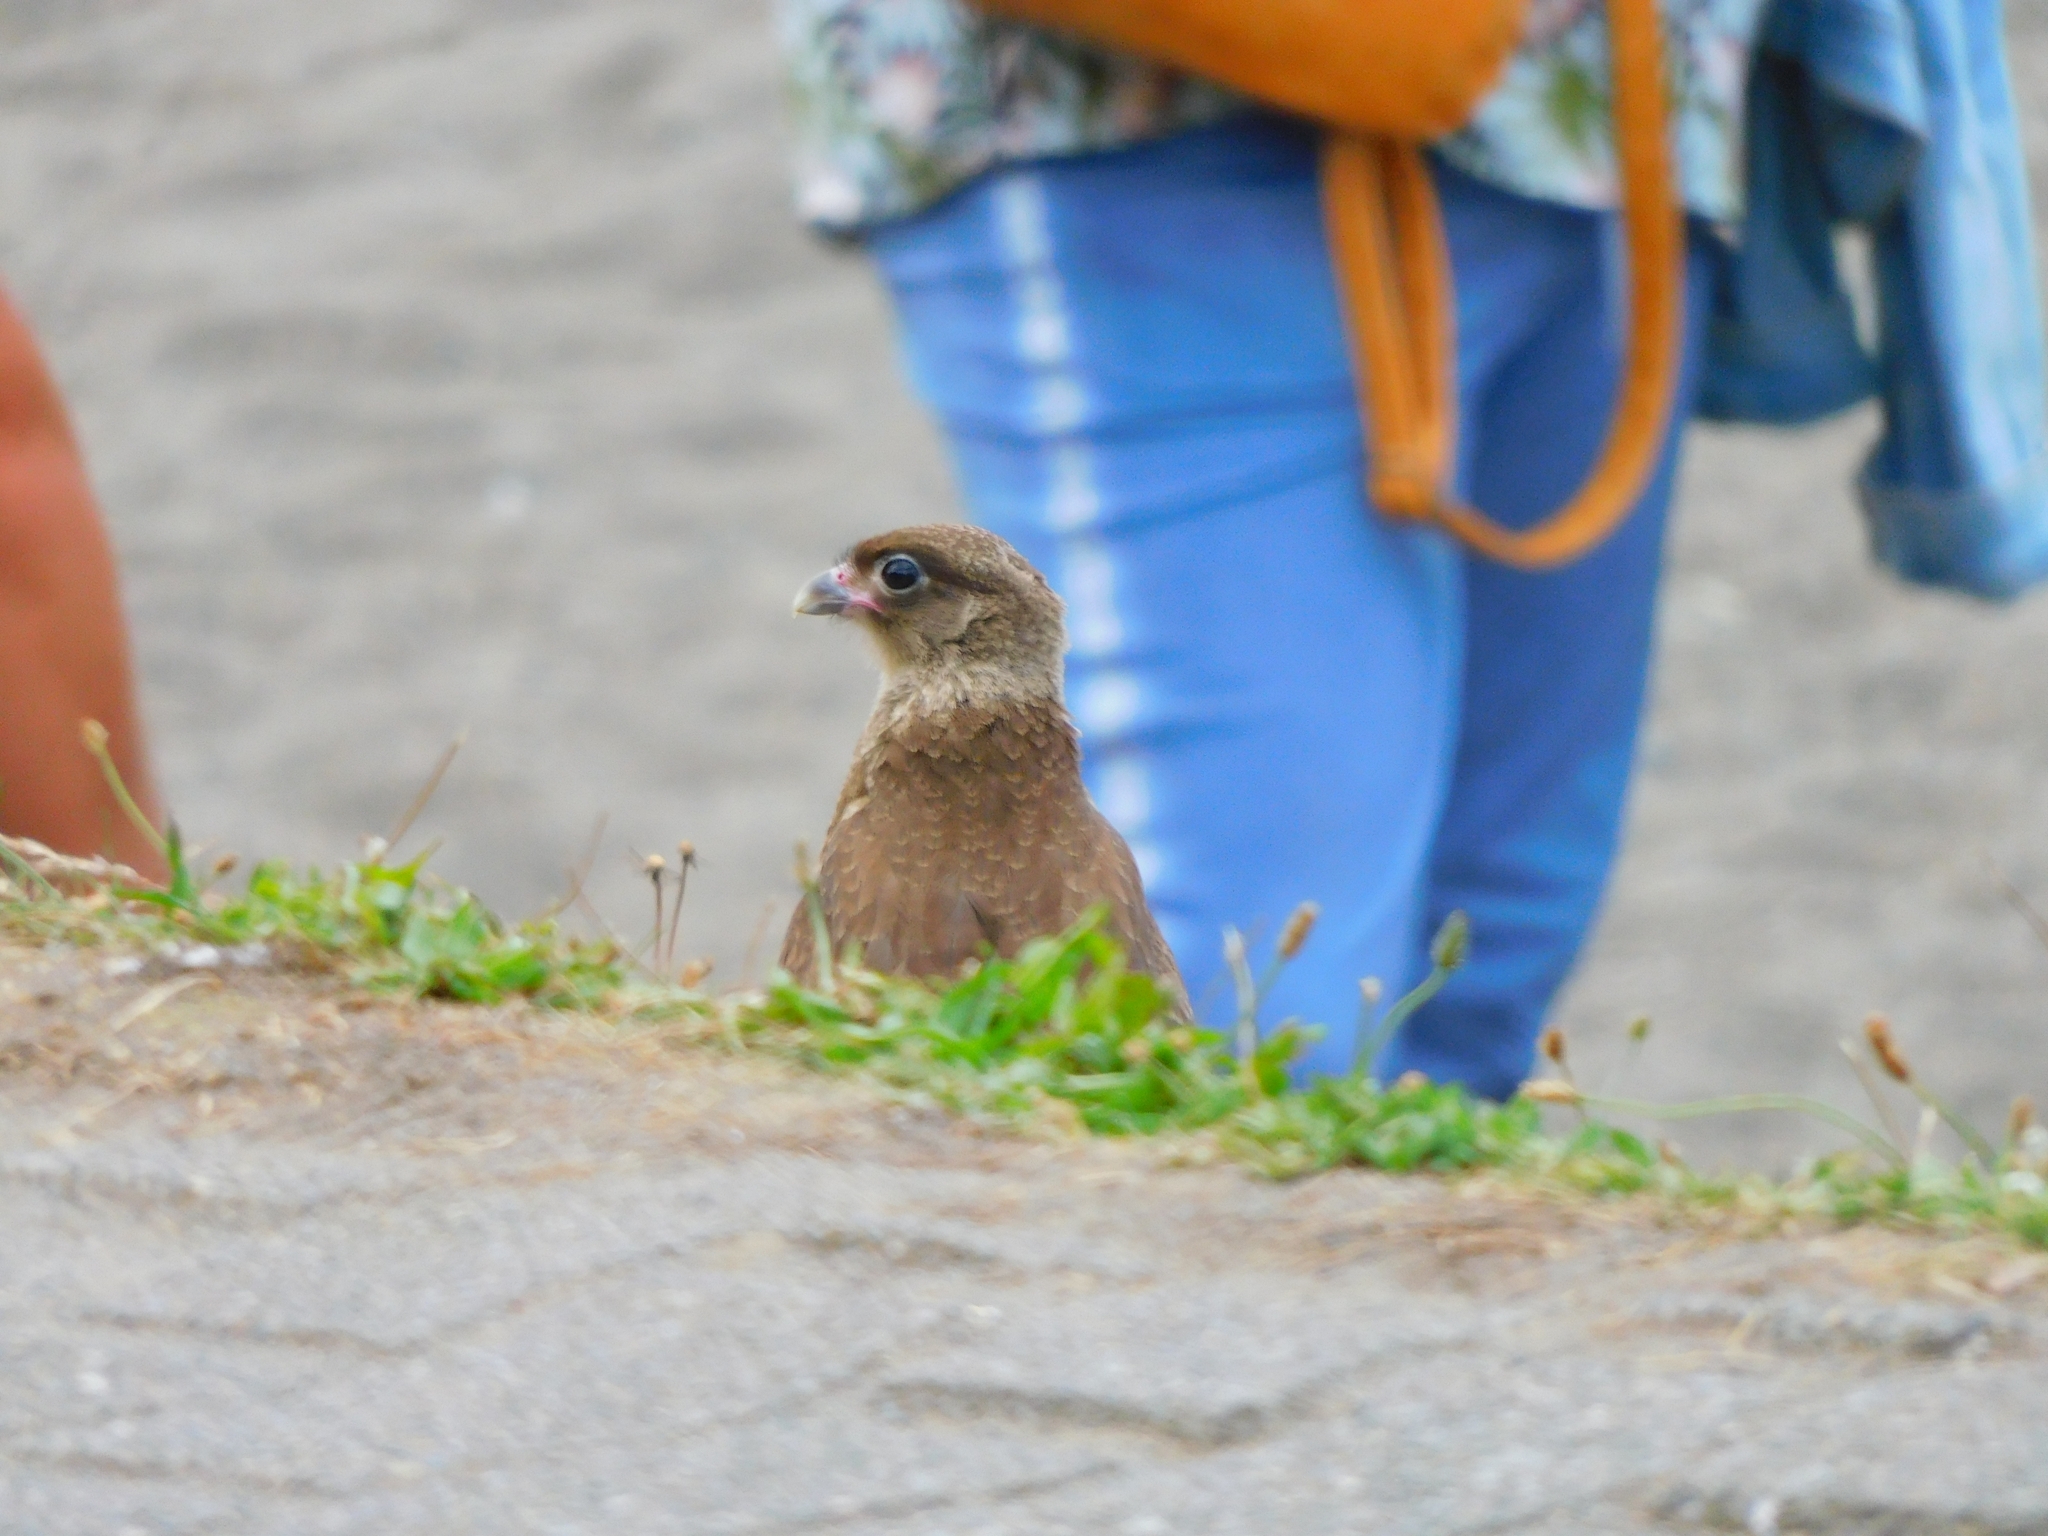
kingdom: Animalia
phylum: Chordata
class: Aves
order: Falconiformes
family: Falconidae
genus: Daptrius
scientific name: Daptrius
